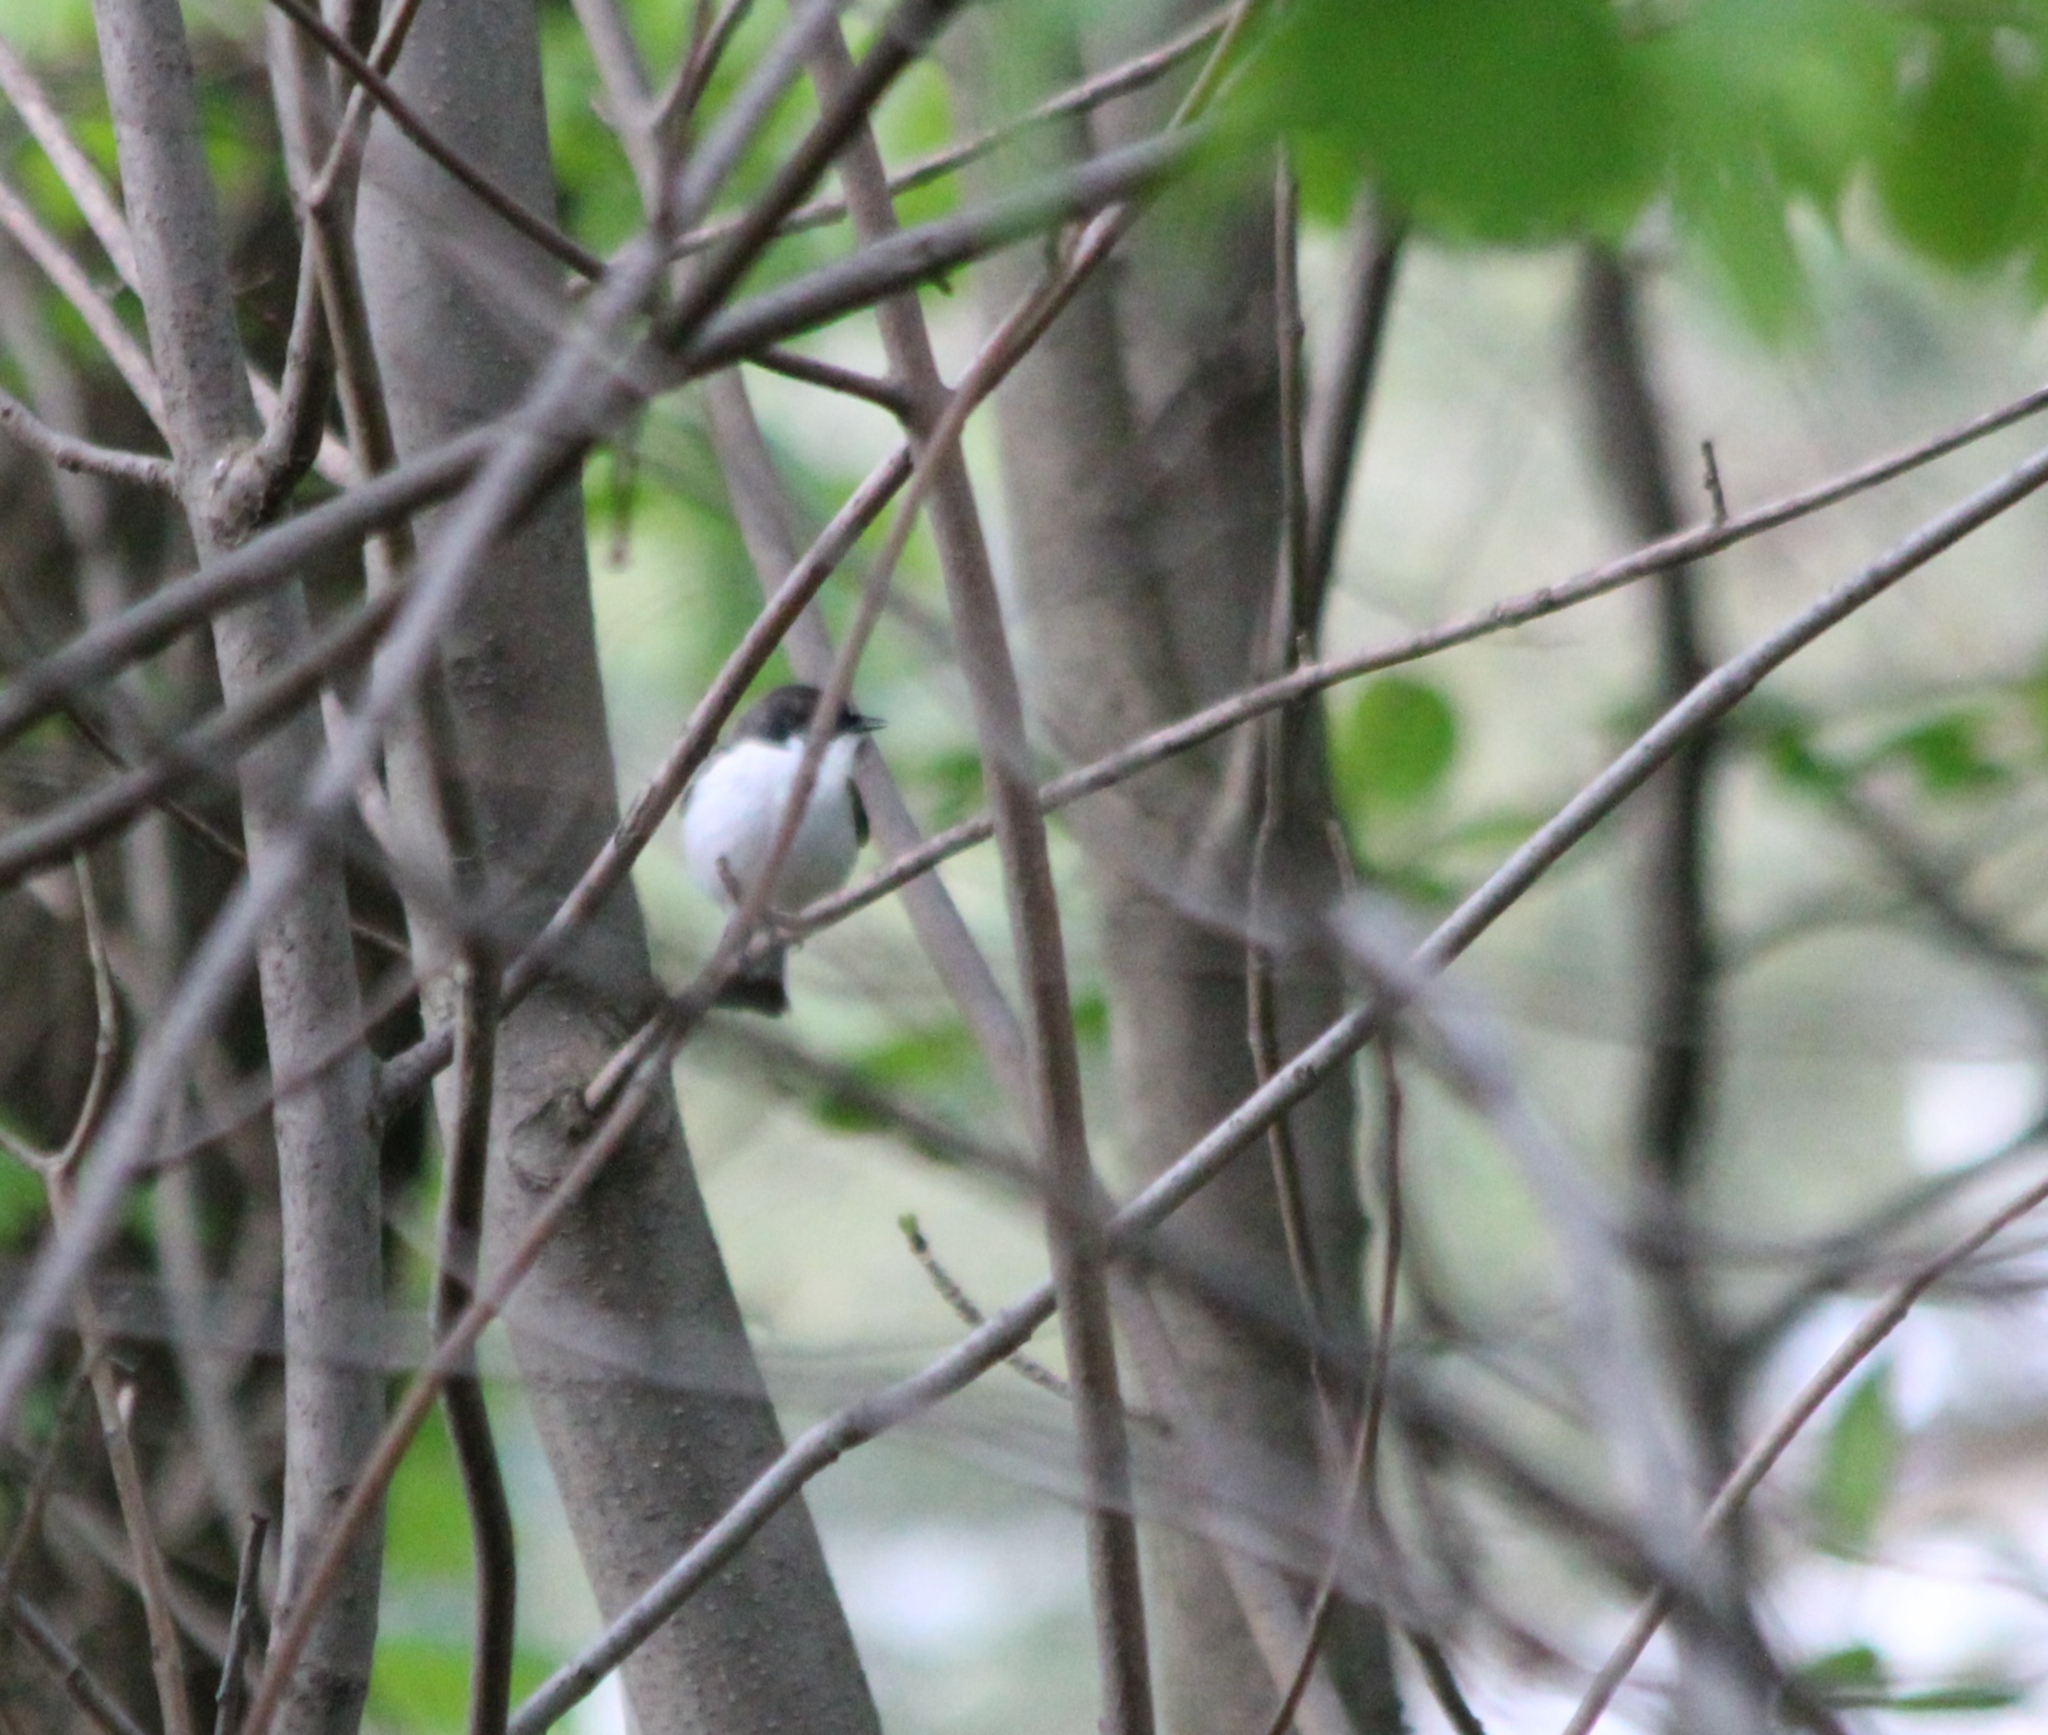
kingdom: Animalia
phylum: Chordata
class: Aves
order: Passeriformes
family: Muscicapidae
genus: Ficedula
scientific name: Ficedula hypoleuca
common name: European pied flycatcher
